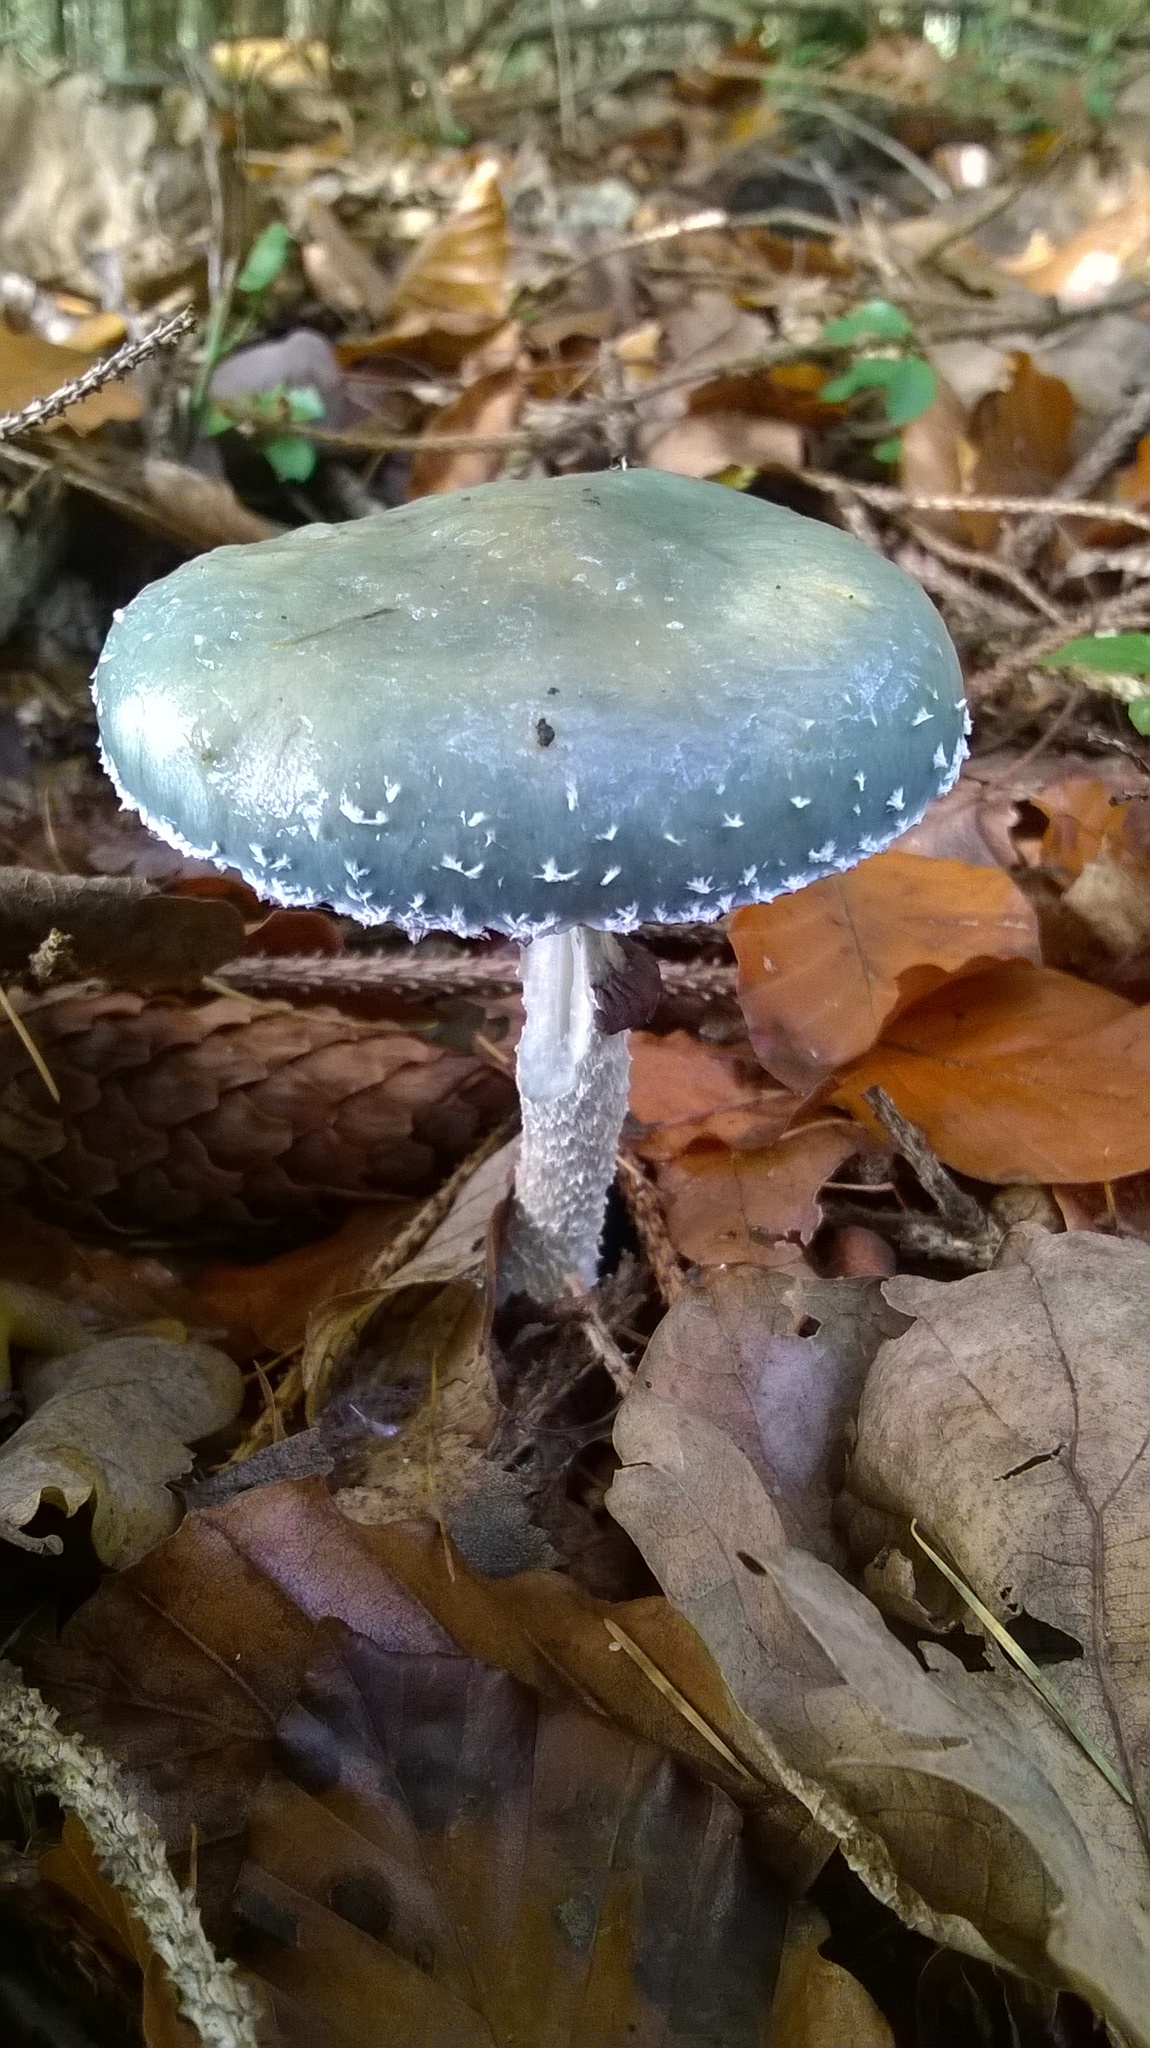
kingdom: Fungi
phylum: Basidiomycota
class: Agaricomycetes
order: Agaricales
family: Strophariaceae
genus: Stropharia
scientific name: Stropharia aeruginosa
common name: Verdigris roundhead
